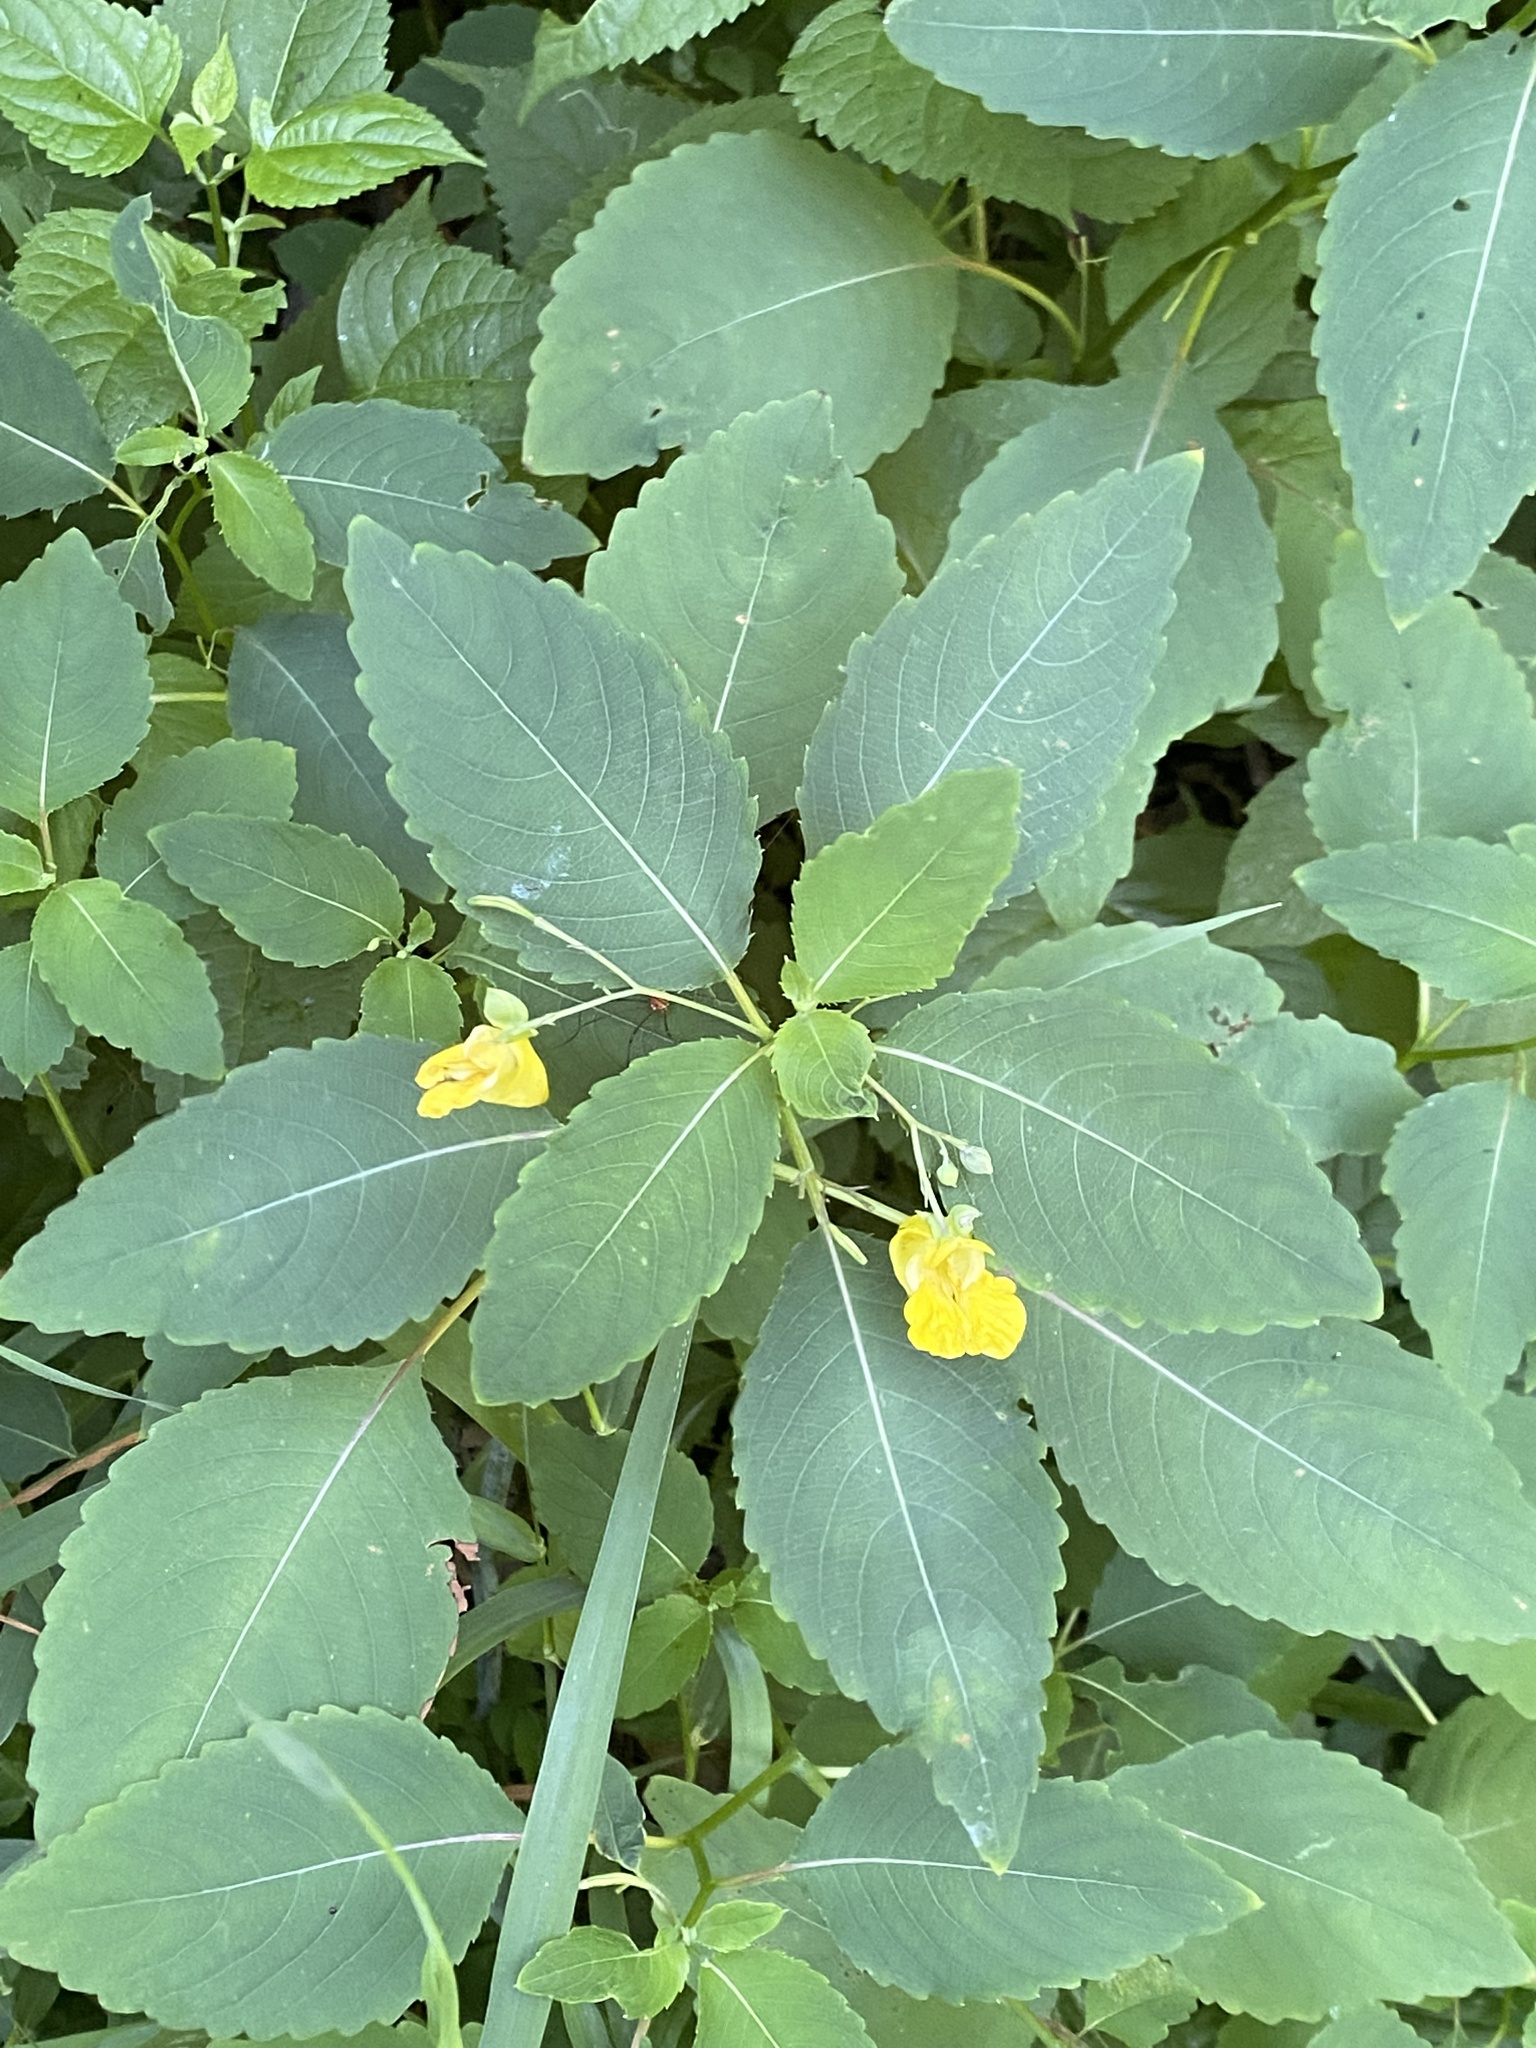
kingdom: Plantae
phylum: Tracheophyta
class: Magnoliopsida
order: Ericales
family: Balsaminaceae
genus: Impatiens
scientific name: Impatiens pallida
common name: Pale snapweed
